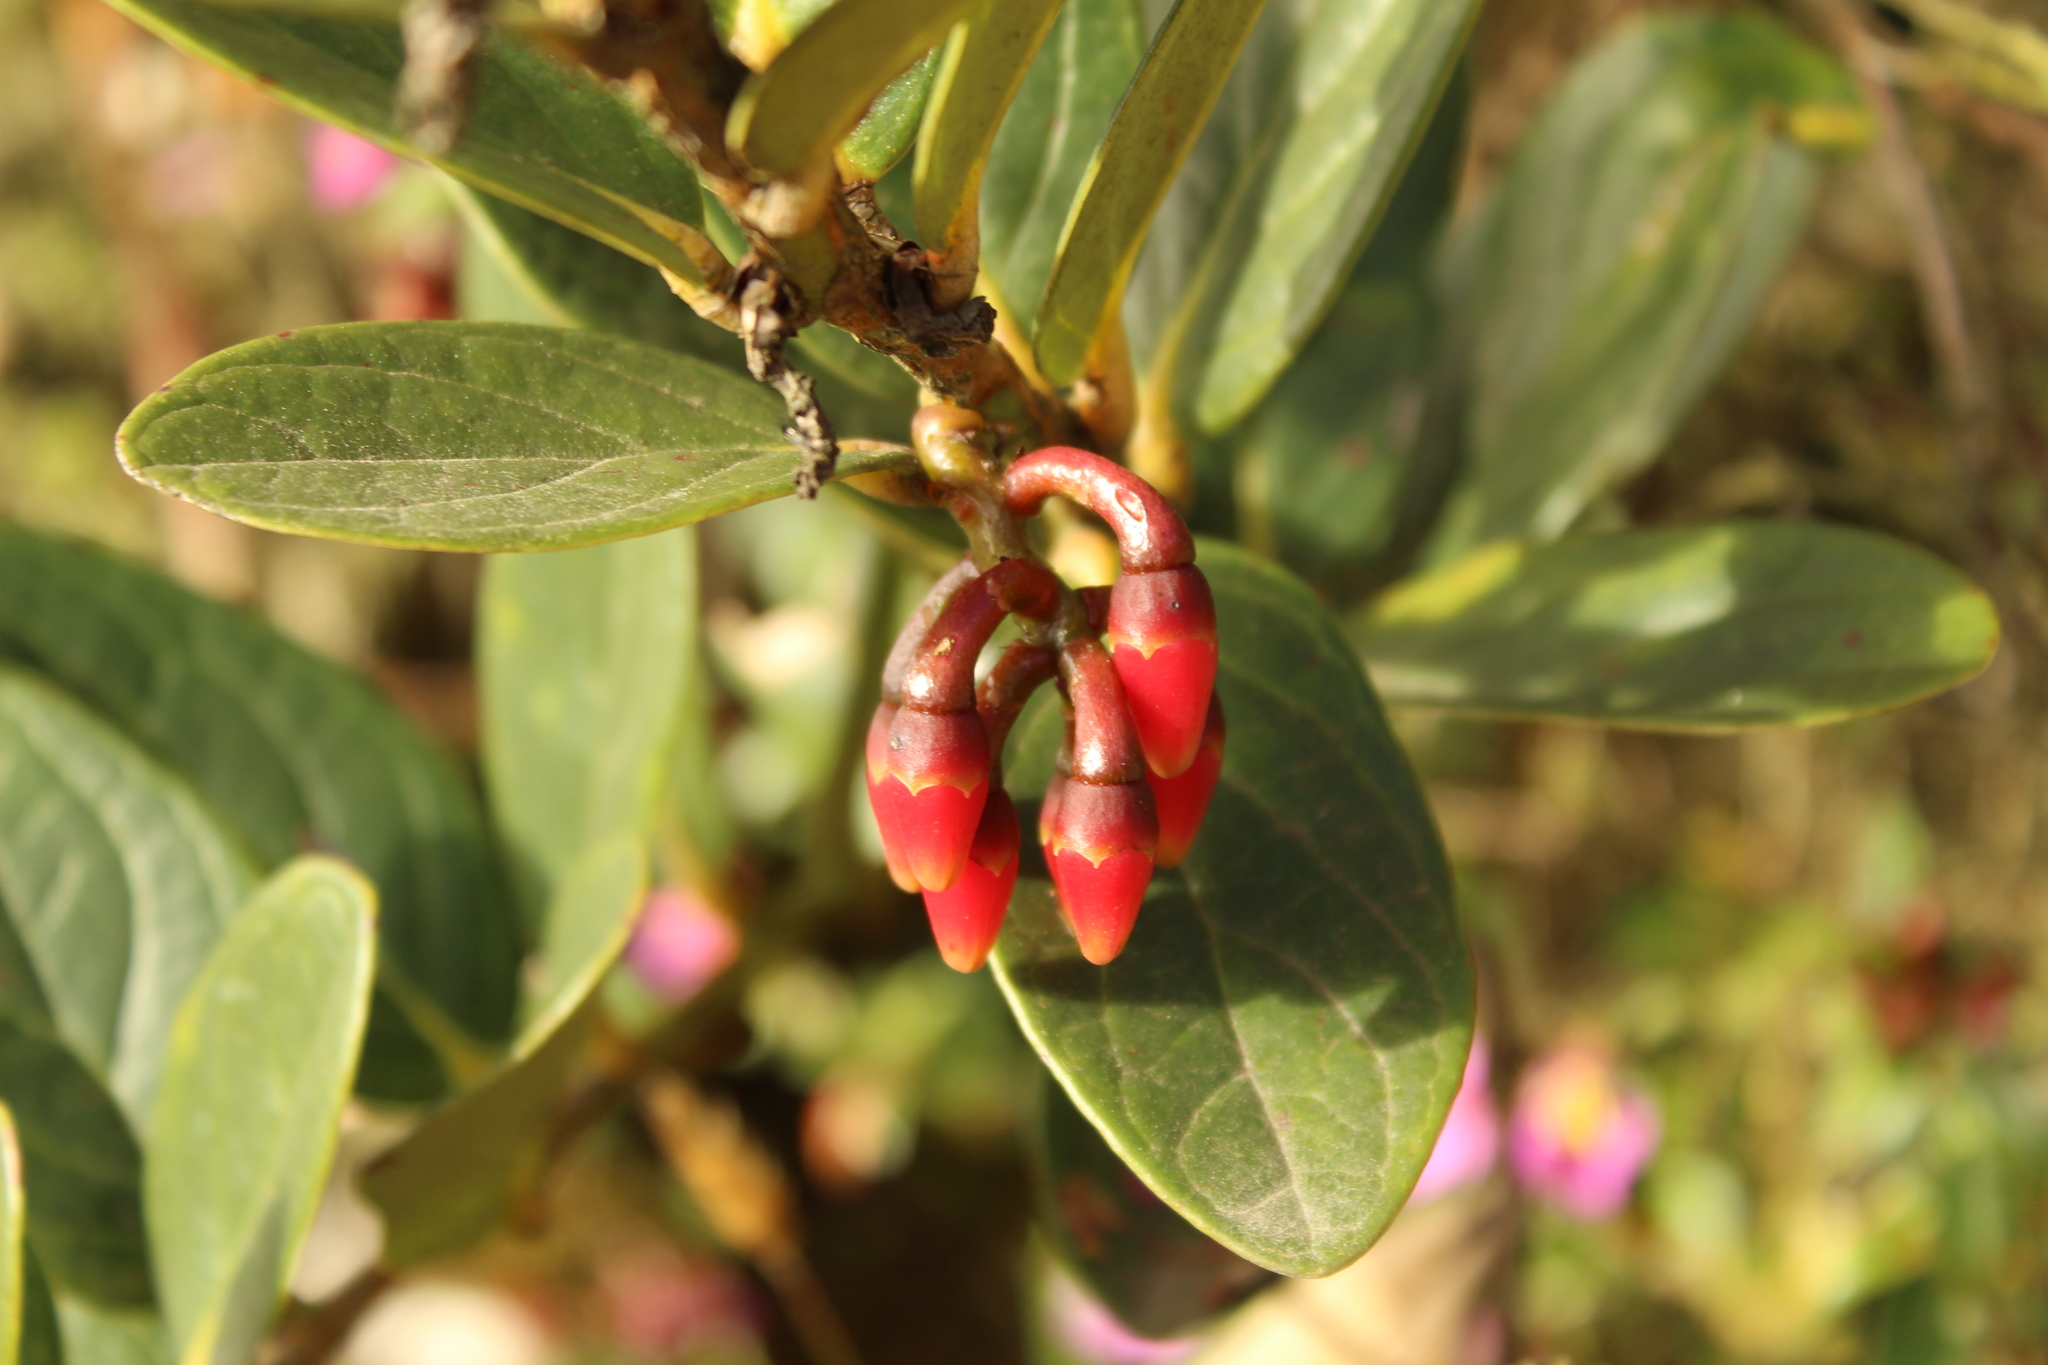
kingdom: Plantae
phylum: Tracheophyta
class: Magnoliopsida
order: Ericales
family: Ericaceae
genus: Macleania
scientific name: Macleania rupestris
